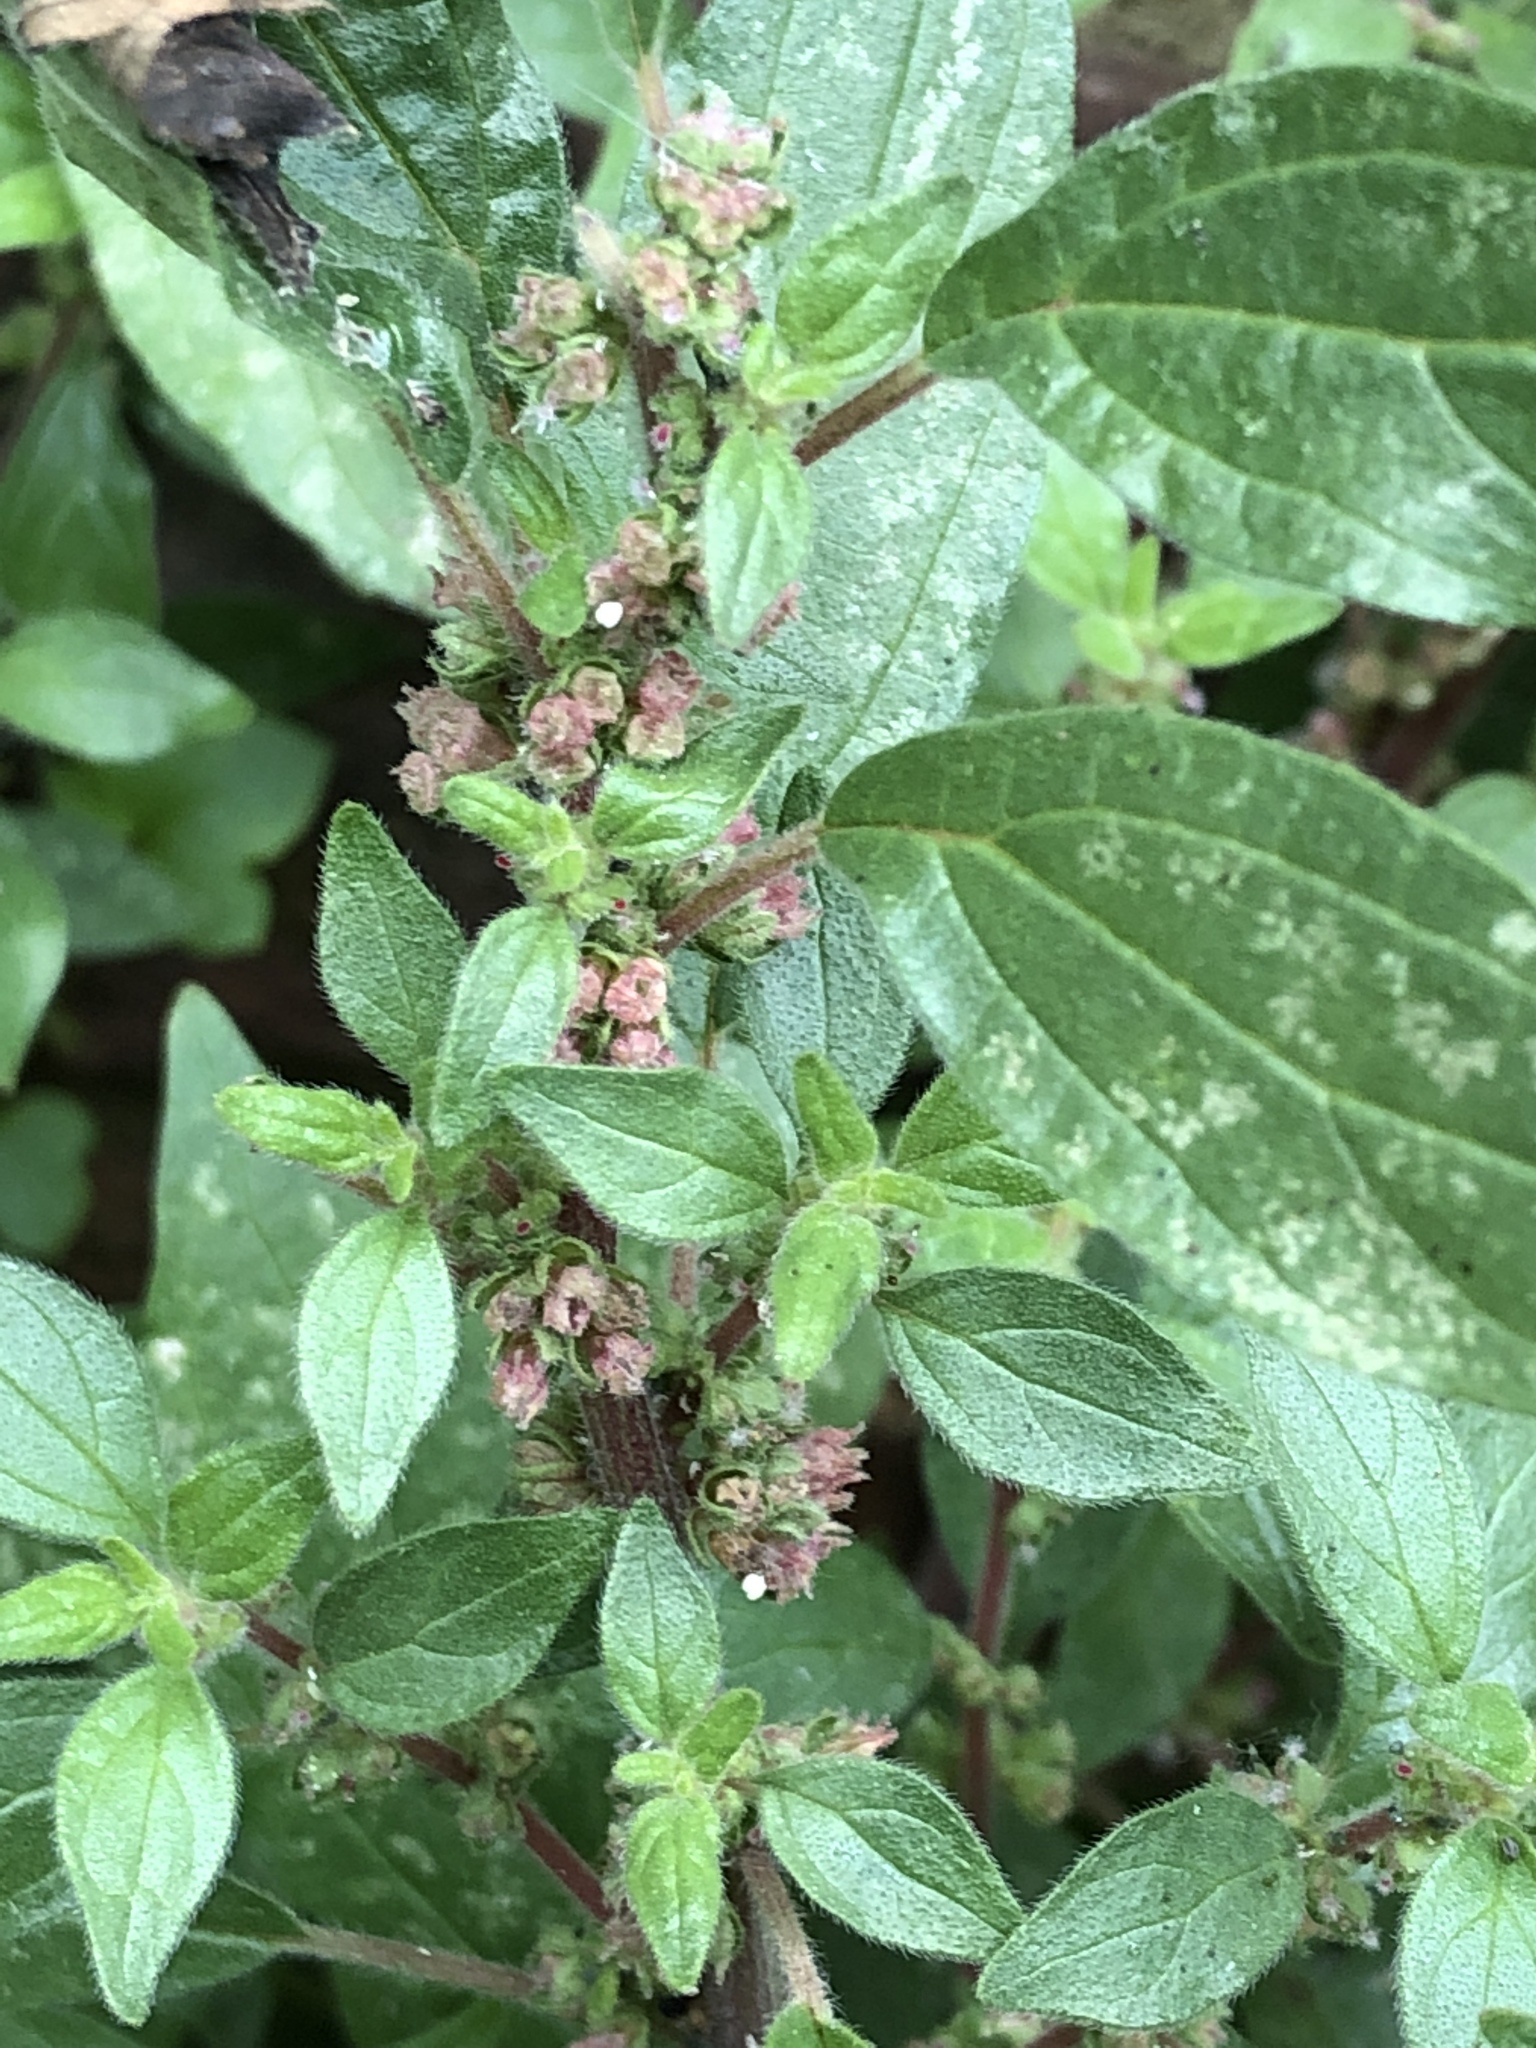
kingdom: Plantae
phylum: Tracheophyta
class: Magnoliopsida
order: Rosales
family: Urticaceae
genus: Parietaria
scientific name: Parietaria judaica
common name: Pellitory-of-the-wall
